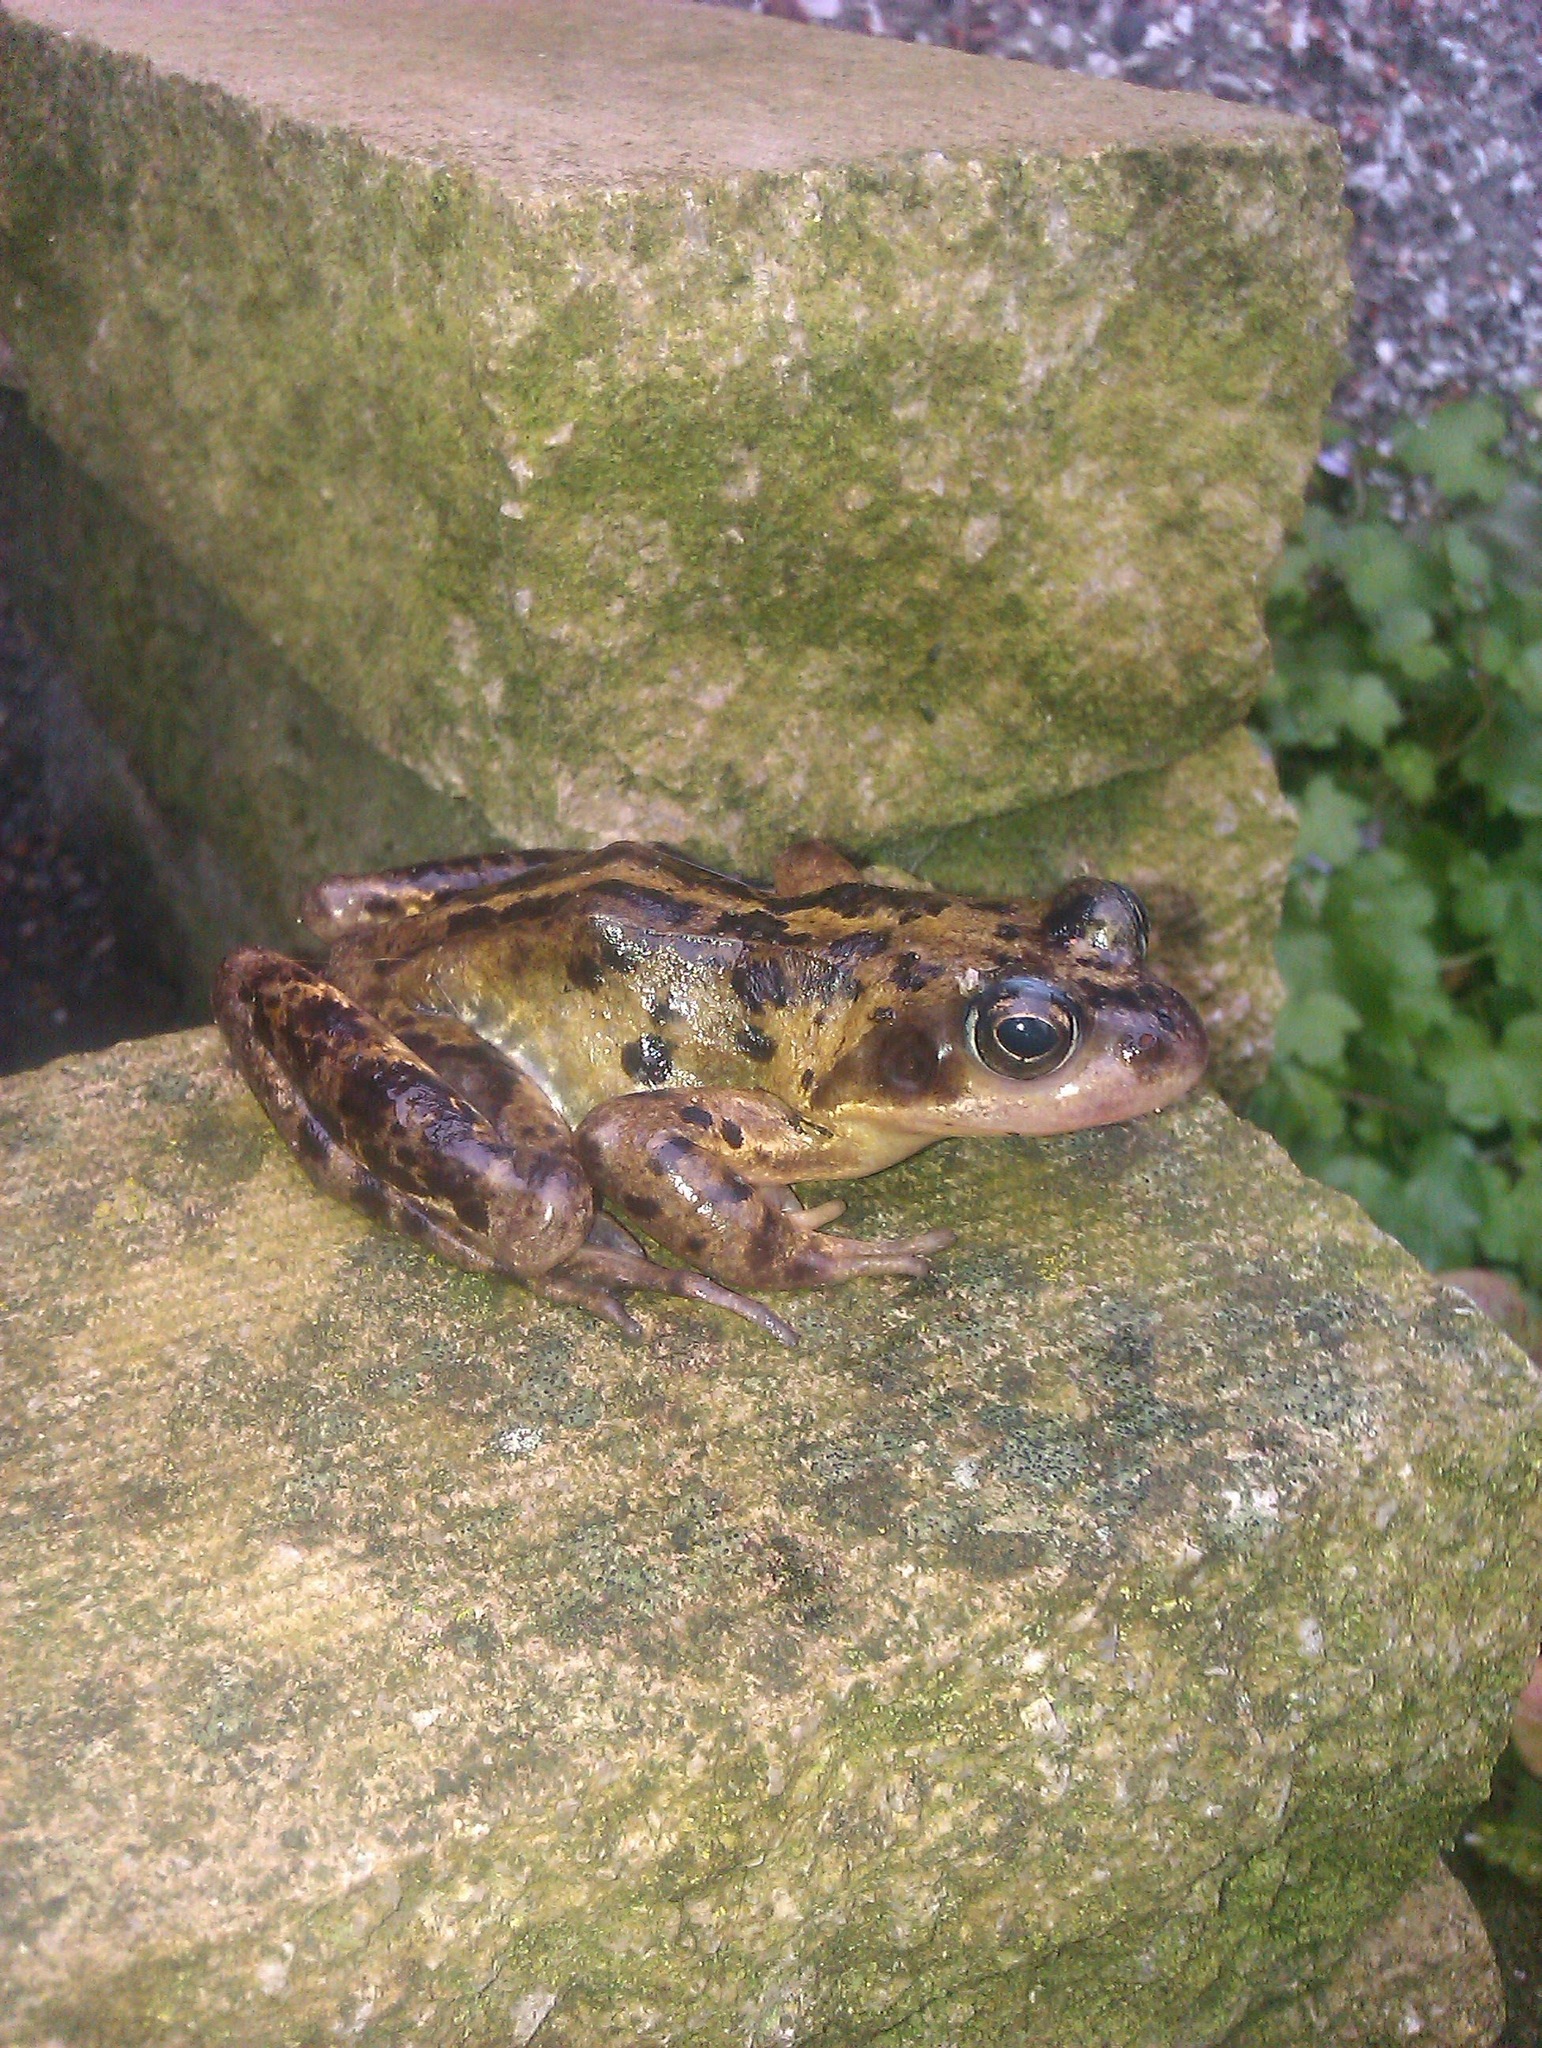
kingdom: Animalia
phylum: Chordata
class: Amphibia
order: Anura
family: Ranidae
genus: Rana
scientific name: Rana temporaria
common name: Common frog
